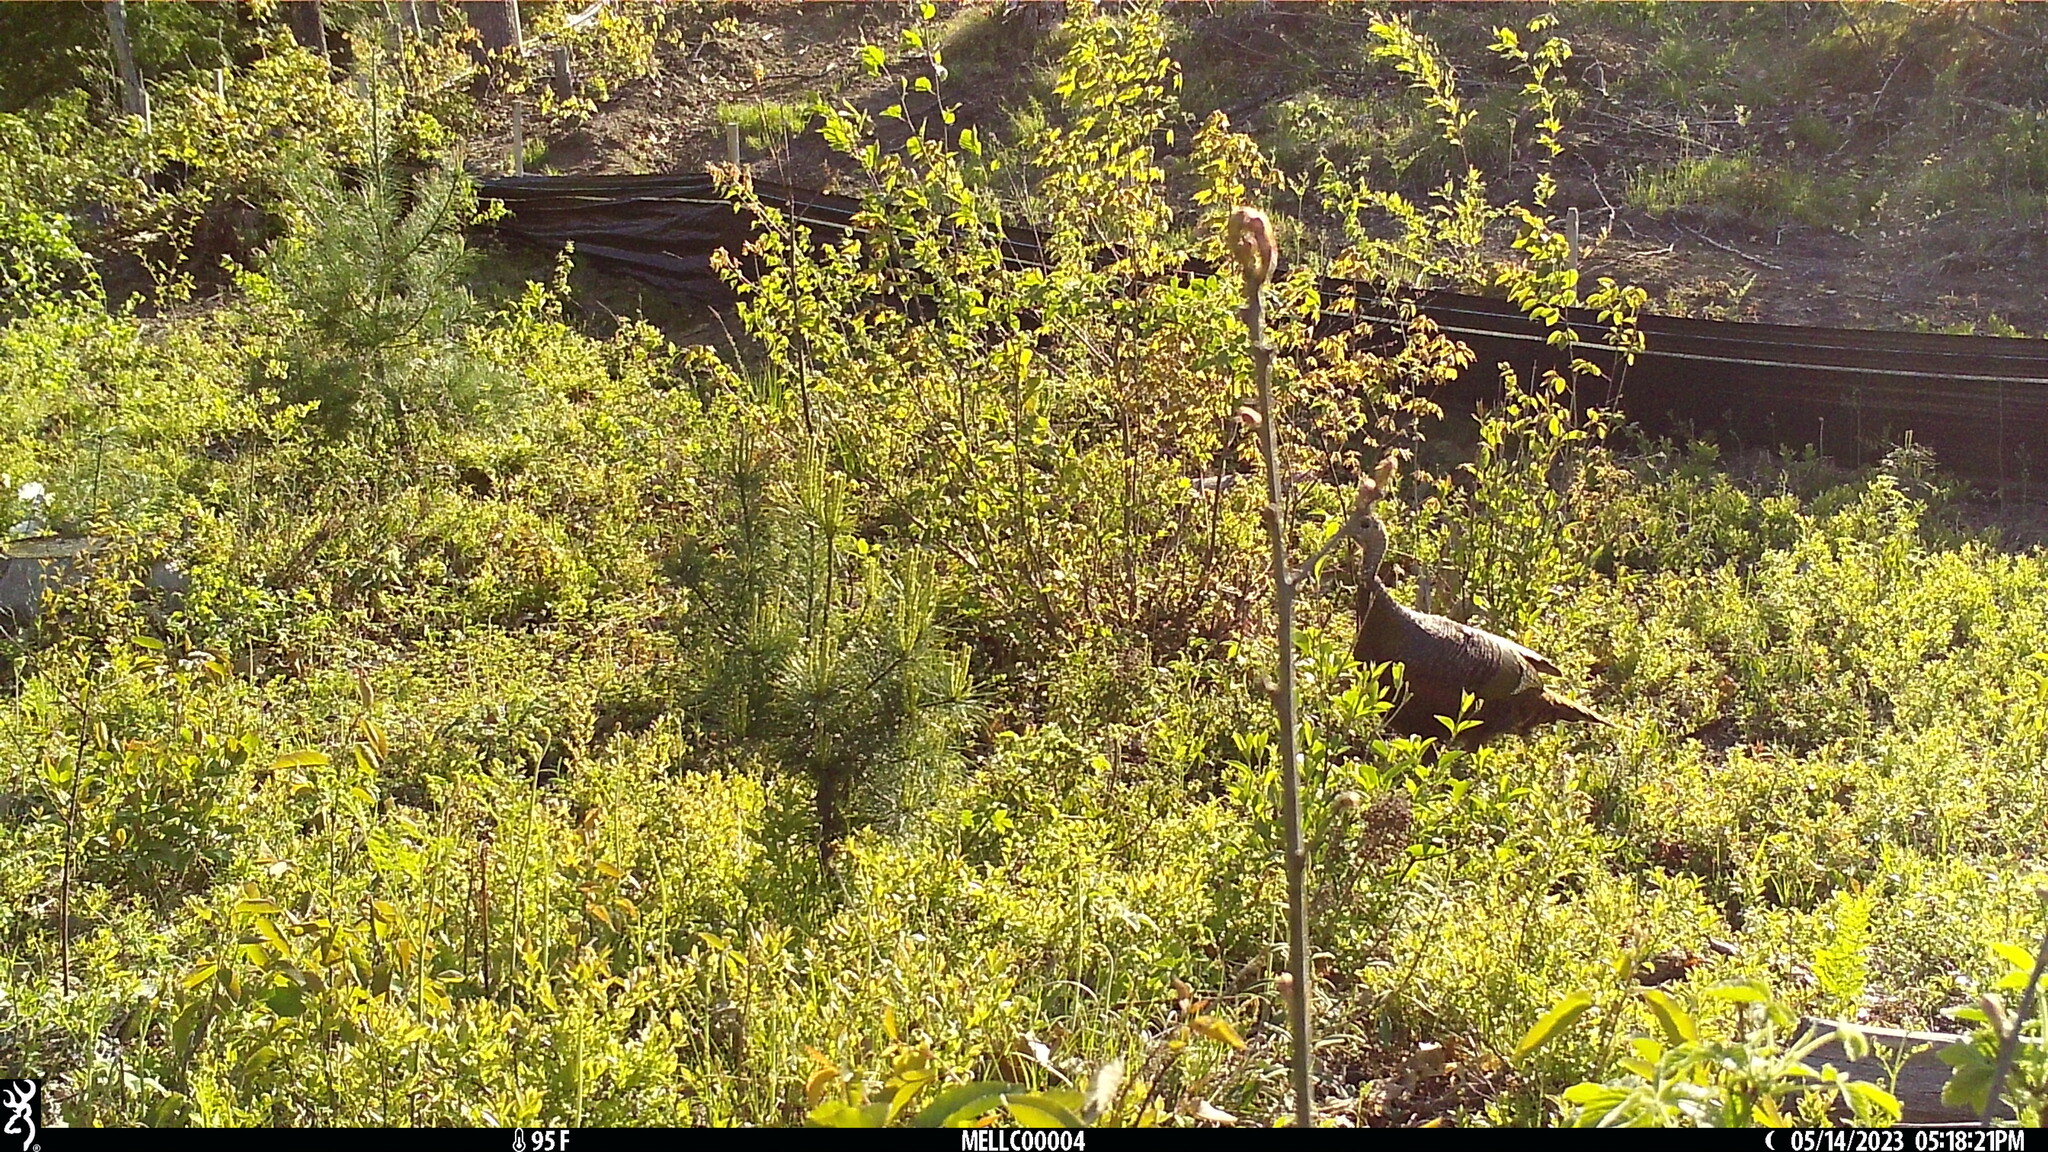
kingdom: Animalia
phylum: Chordata
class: Aves
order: Galliformes
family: Phasianidae
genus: Meleagris
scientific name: Meleagris gallopavo
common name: Wild turkey
